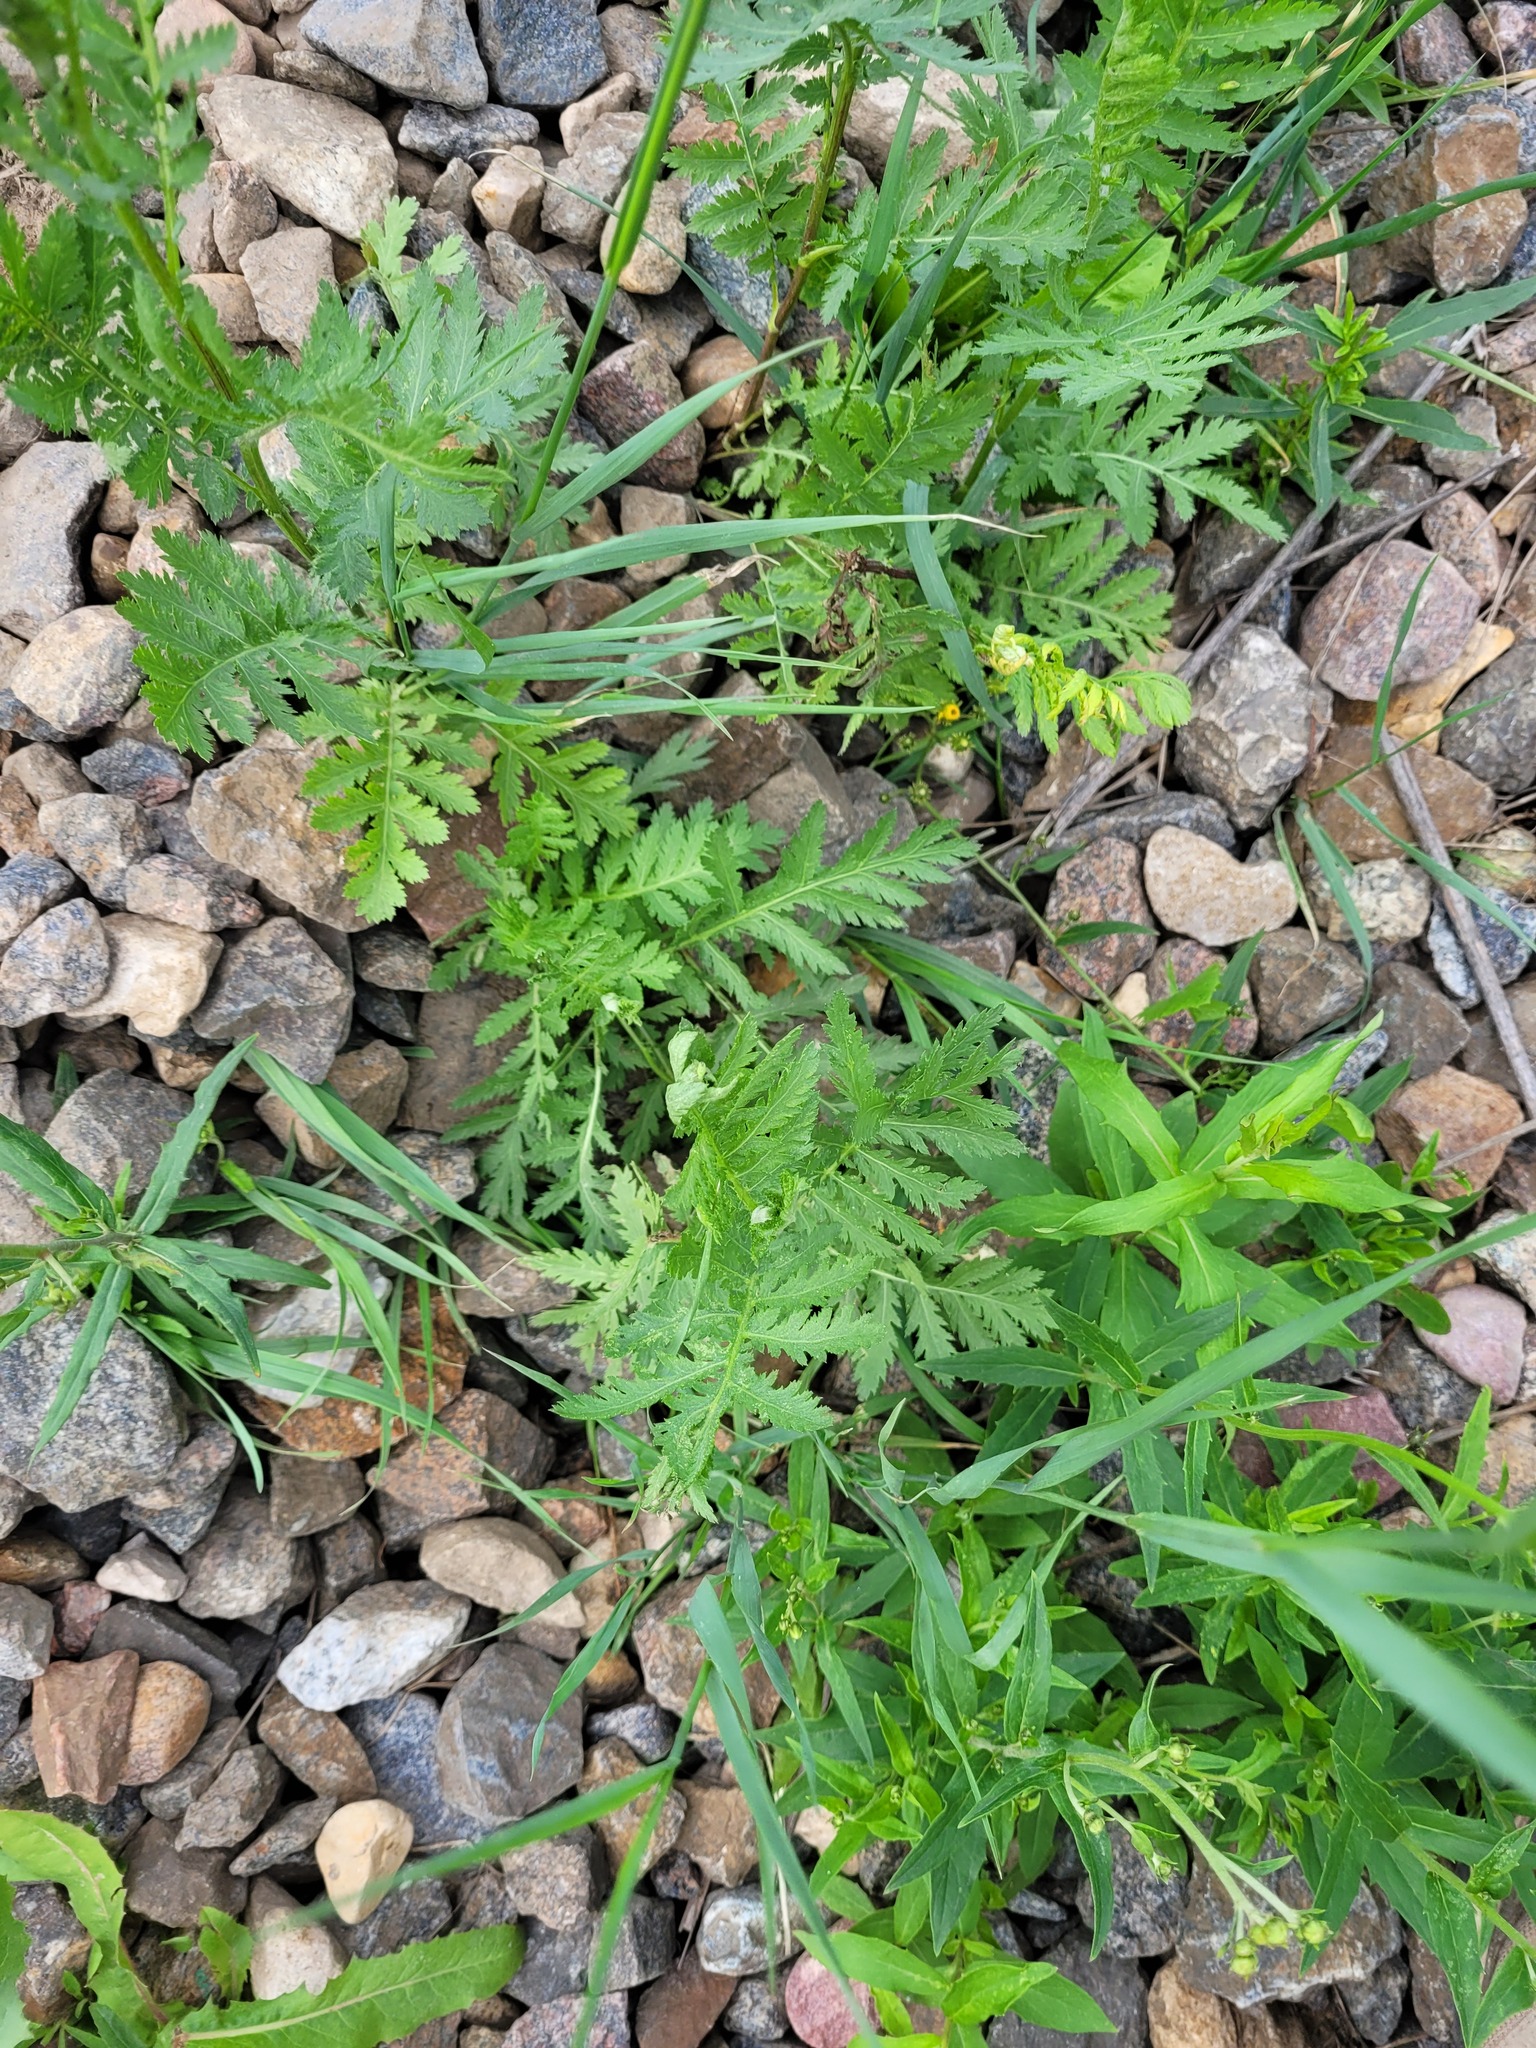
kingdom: Plantae
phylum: Tracheophyta
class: Magnoliopsida
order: Asterales
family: Asteraceae
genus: Tanacetum
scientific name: Tanacetum vulgare
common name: Common tansy
